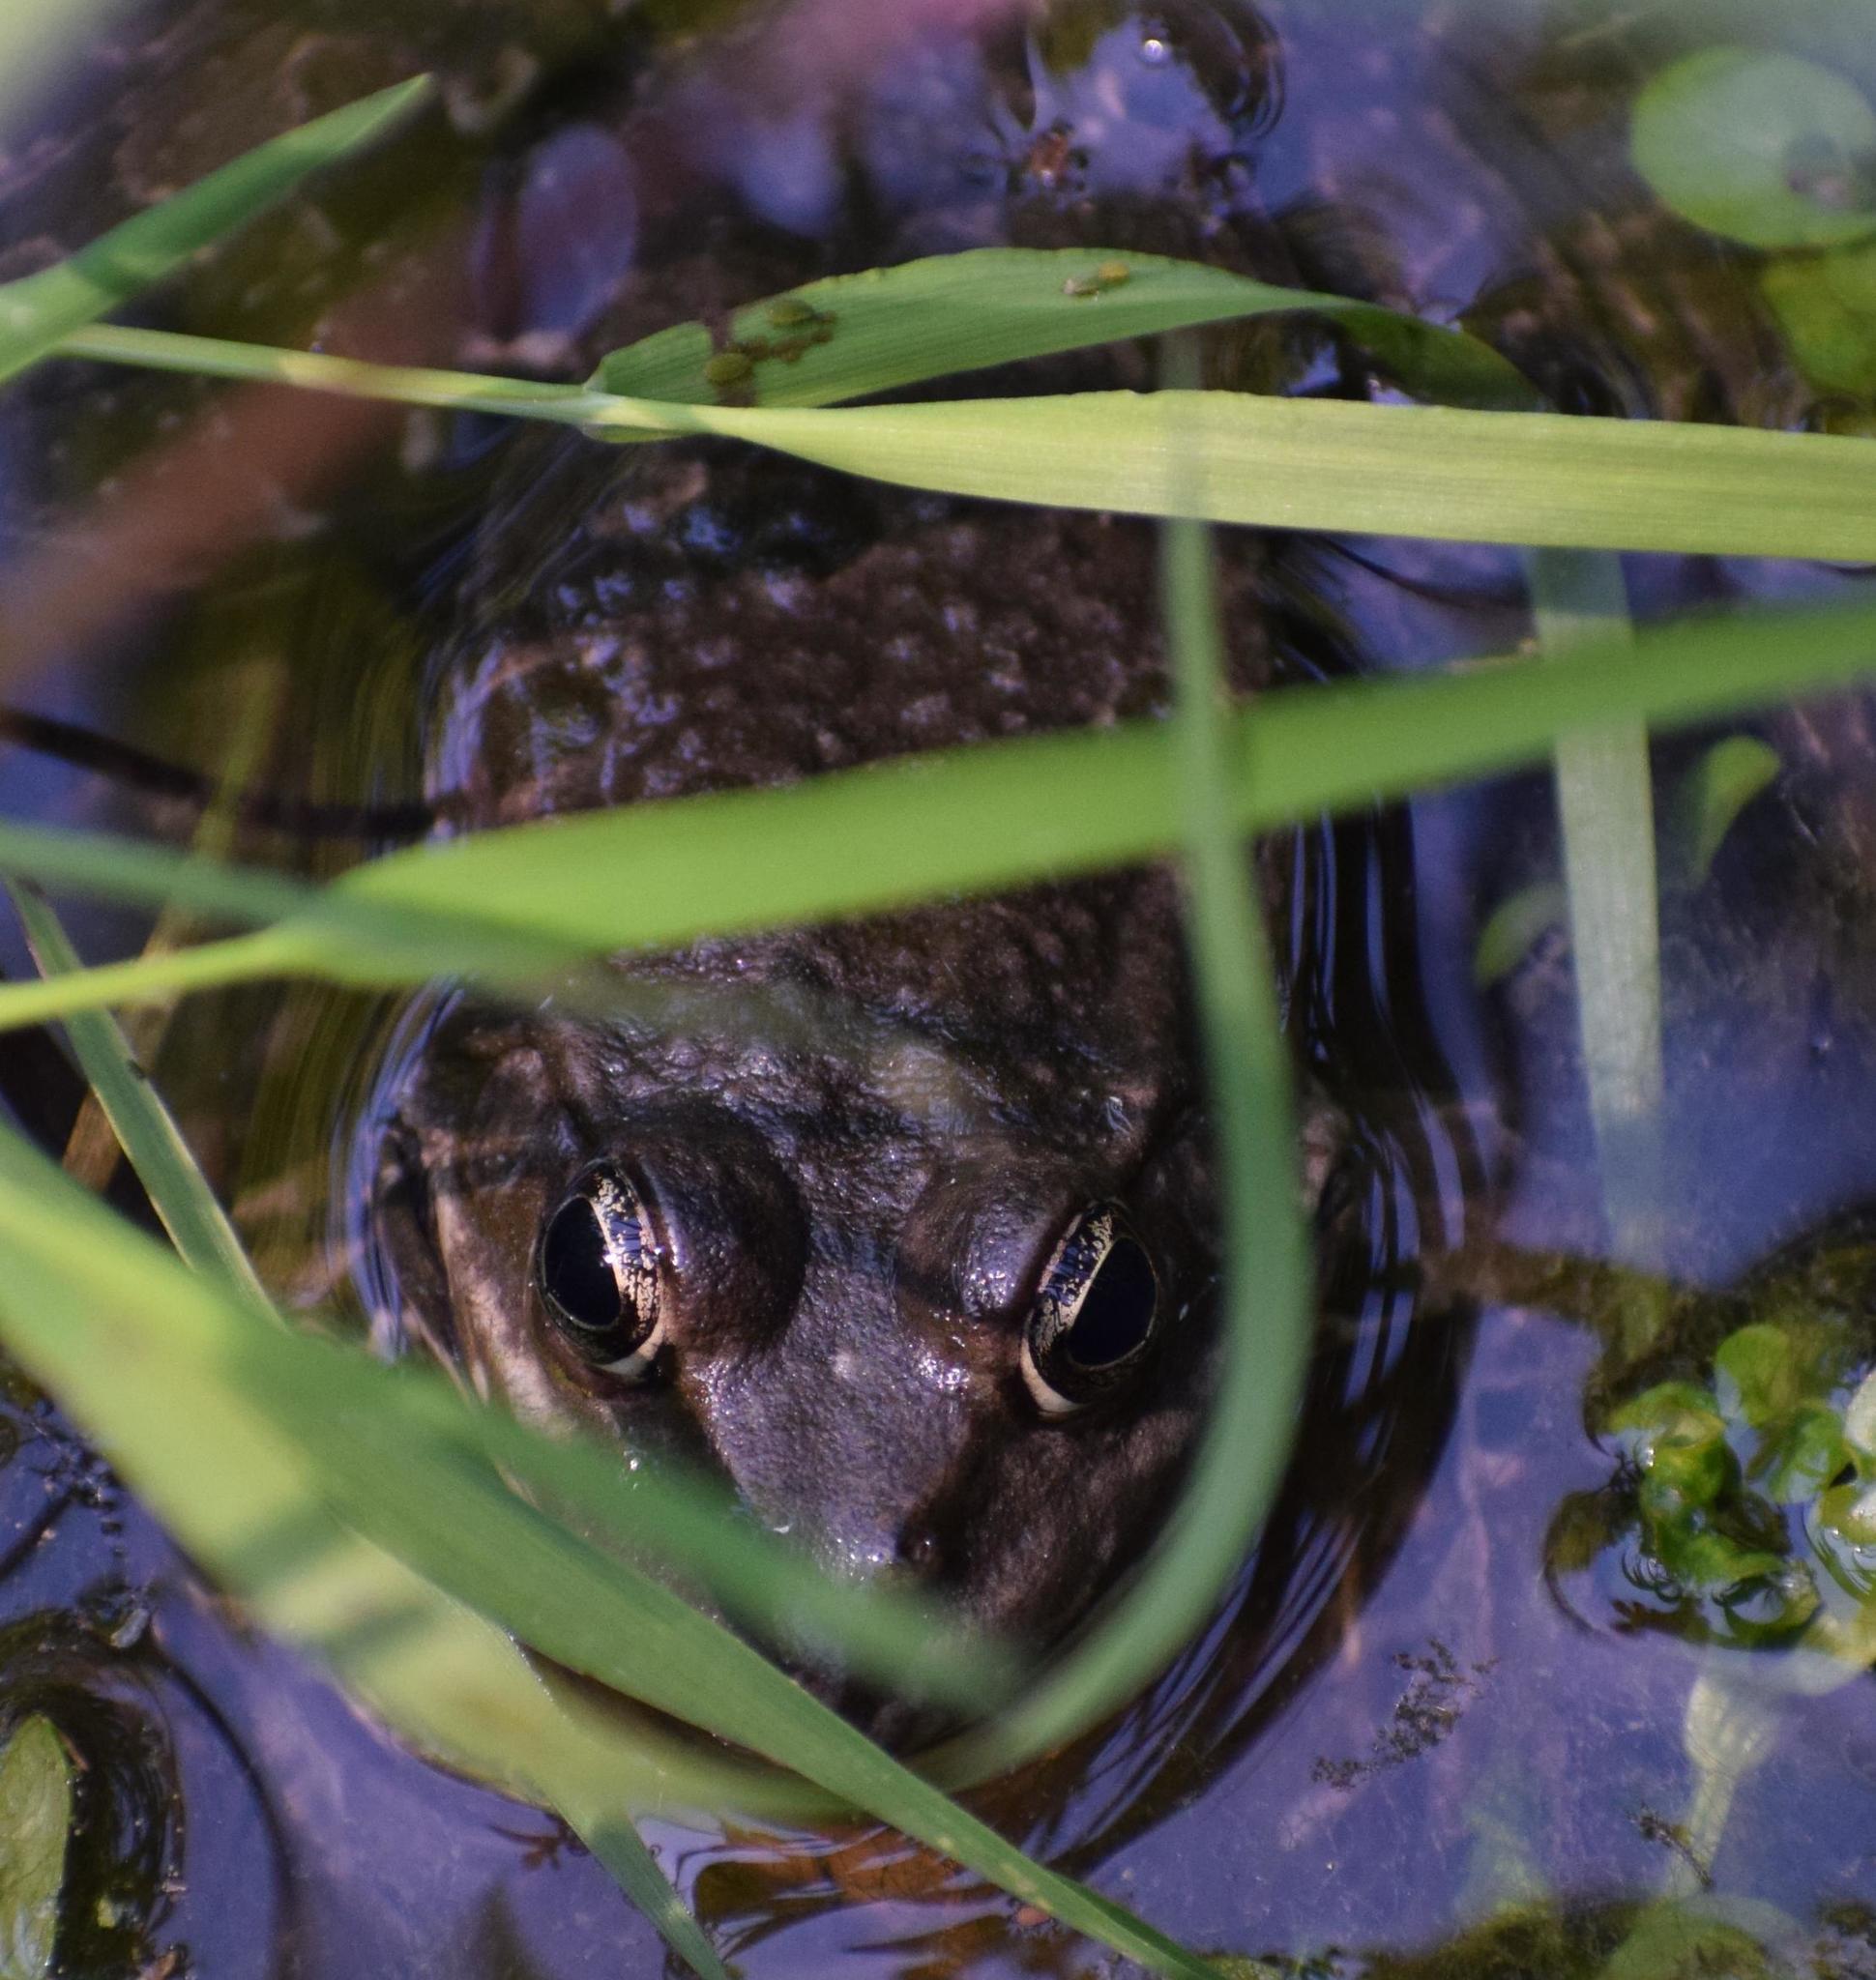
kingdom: Animalia
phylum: Chordata
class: Amphibia
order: Anura
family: Ranidae
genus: Pelophylax
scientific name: Pelophylax
